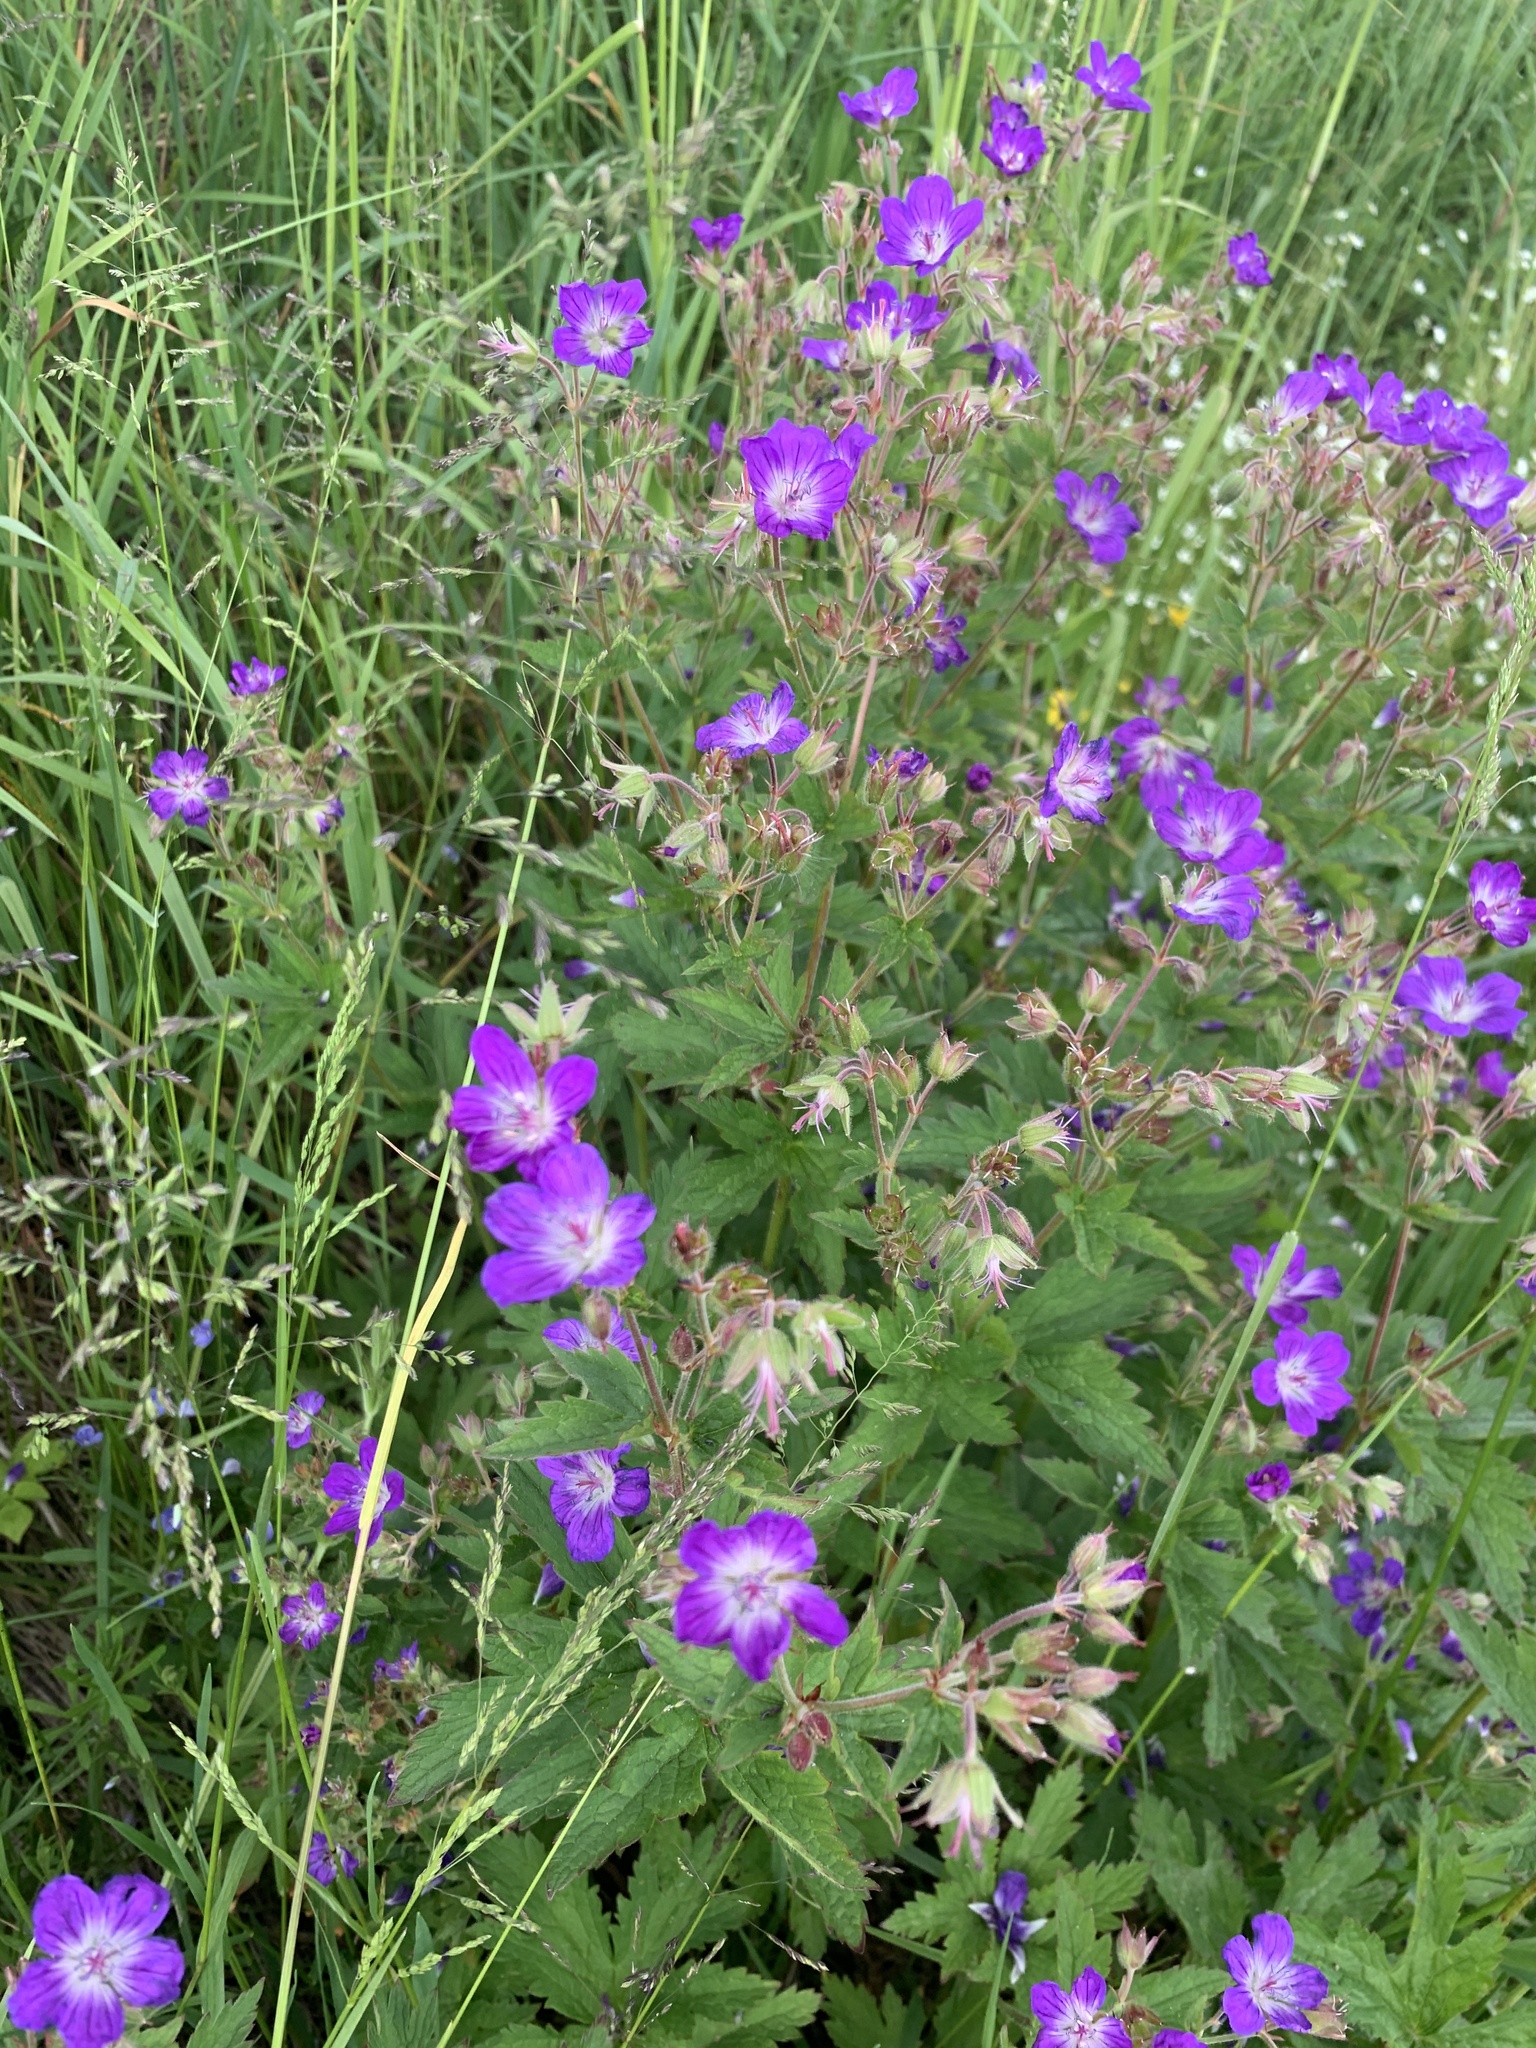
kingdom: Plantae
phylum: Tracheophyta
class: Magnoliopsida
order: Geraniales
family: Geraniaceae
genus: Geranium
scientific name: Geranium sylvaticum
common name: Wood crane's-bill
